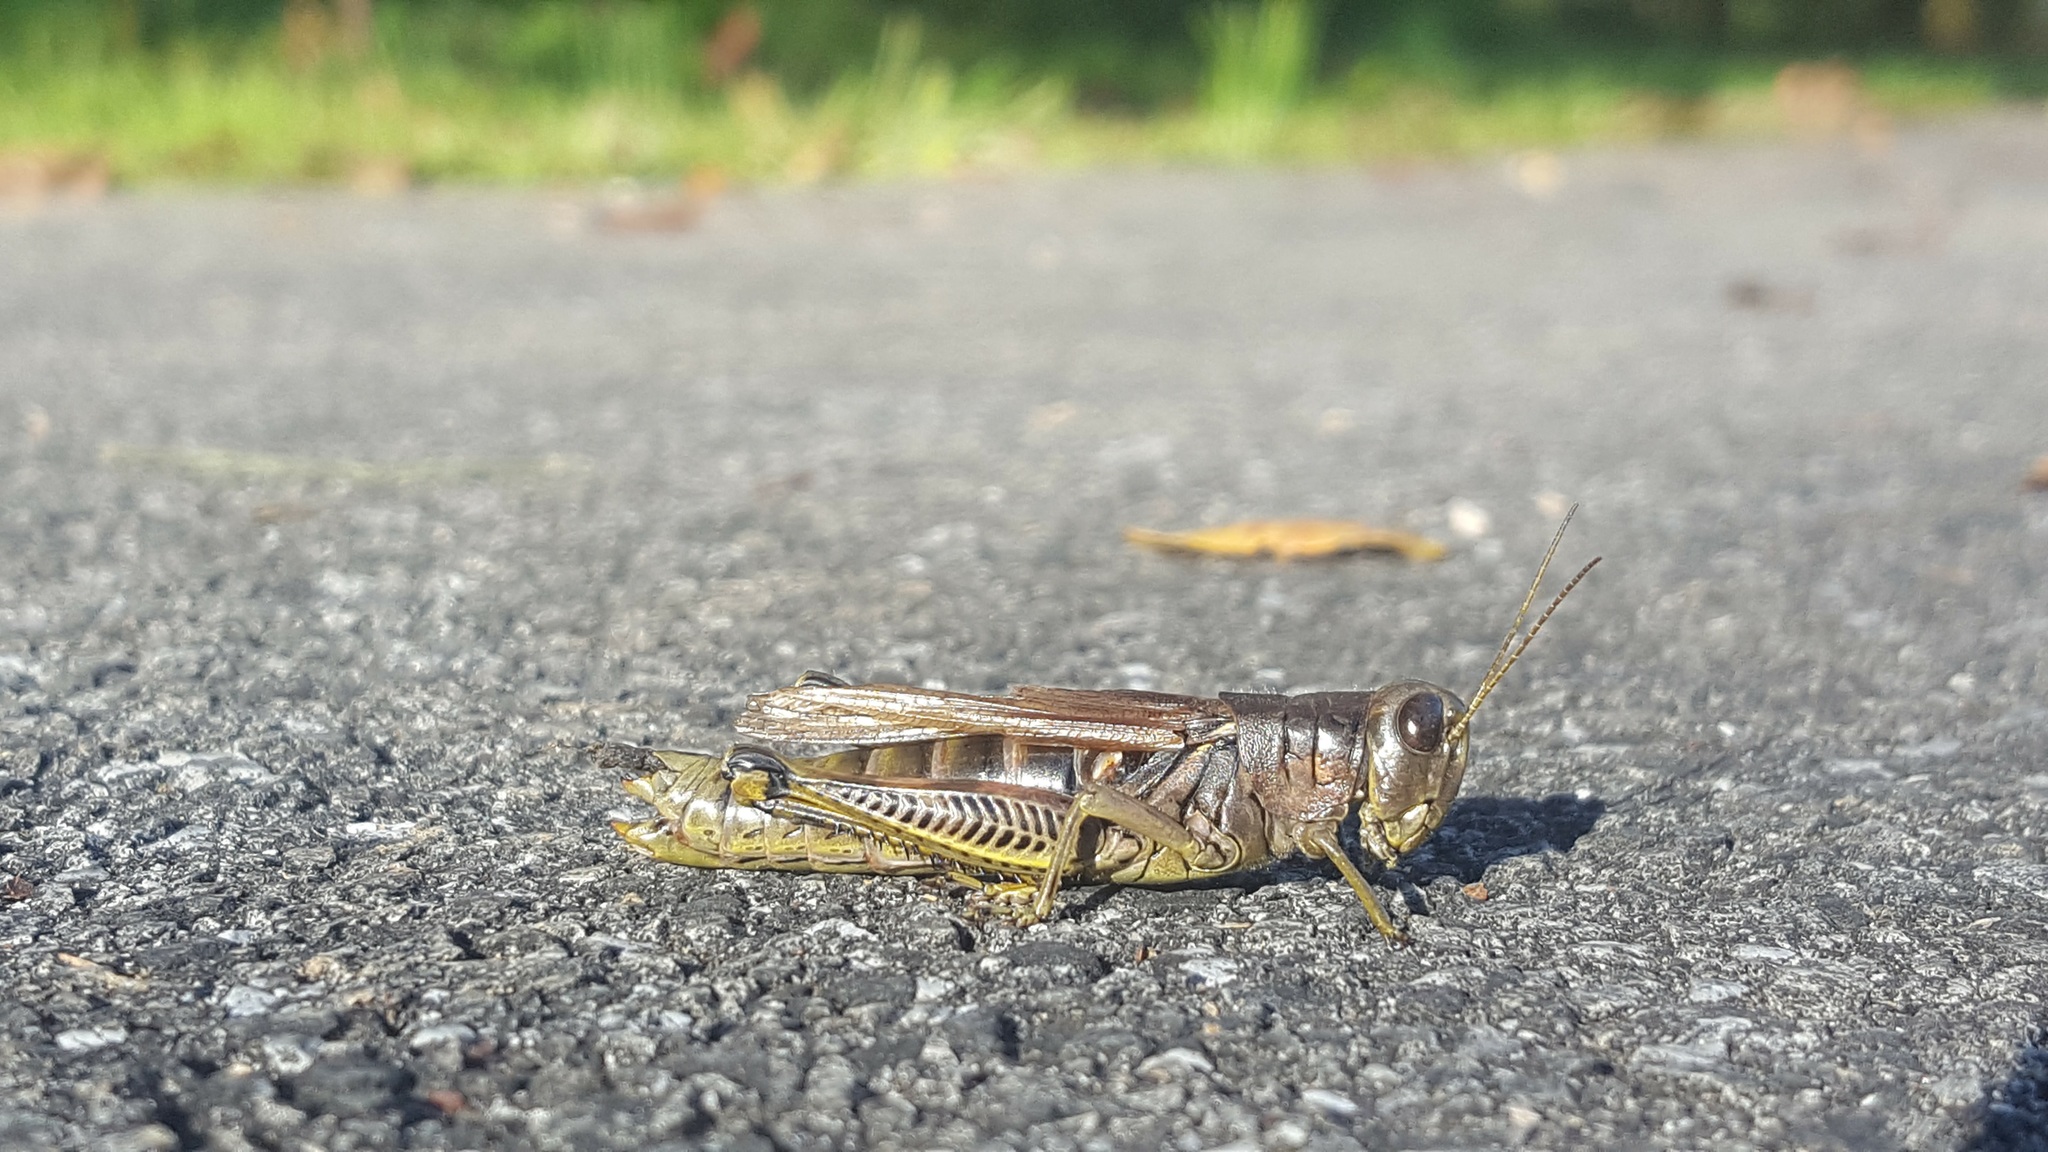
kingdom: Animalia
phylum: Arthropoda
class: Insecta
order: Orthoptera
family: Acrididae
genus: Melanoplus
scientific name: Melanoplus differentialis
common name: Differential grasshopper
